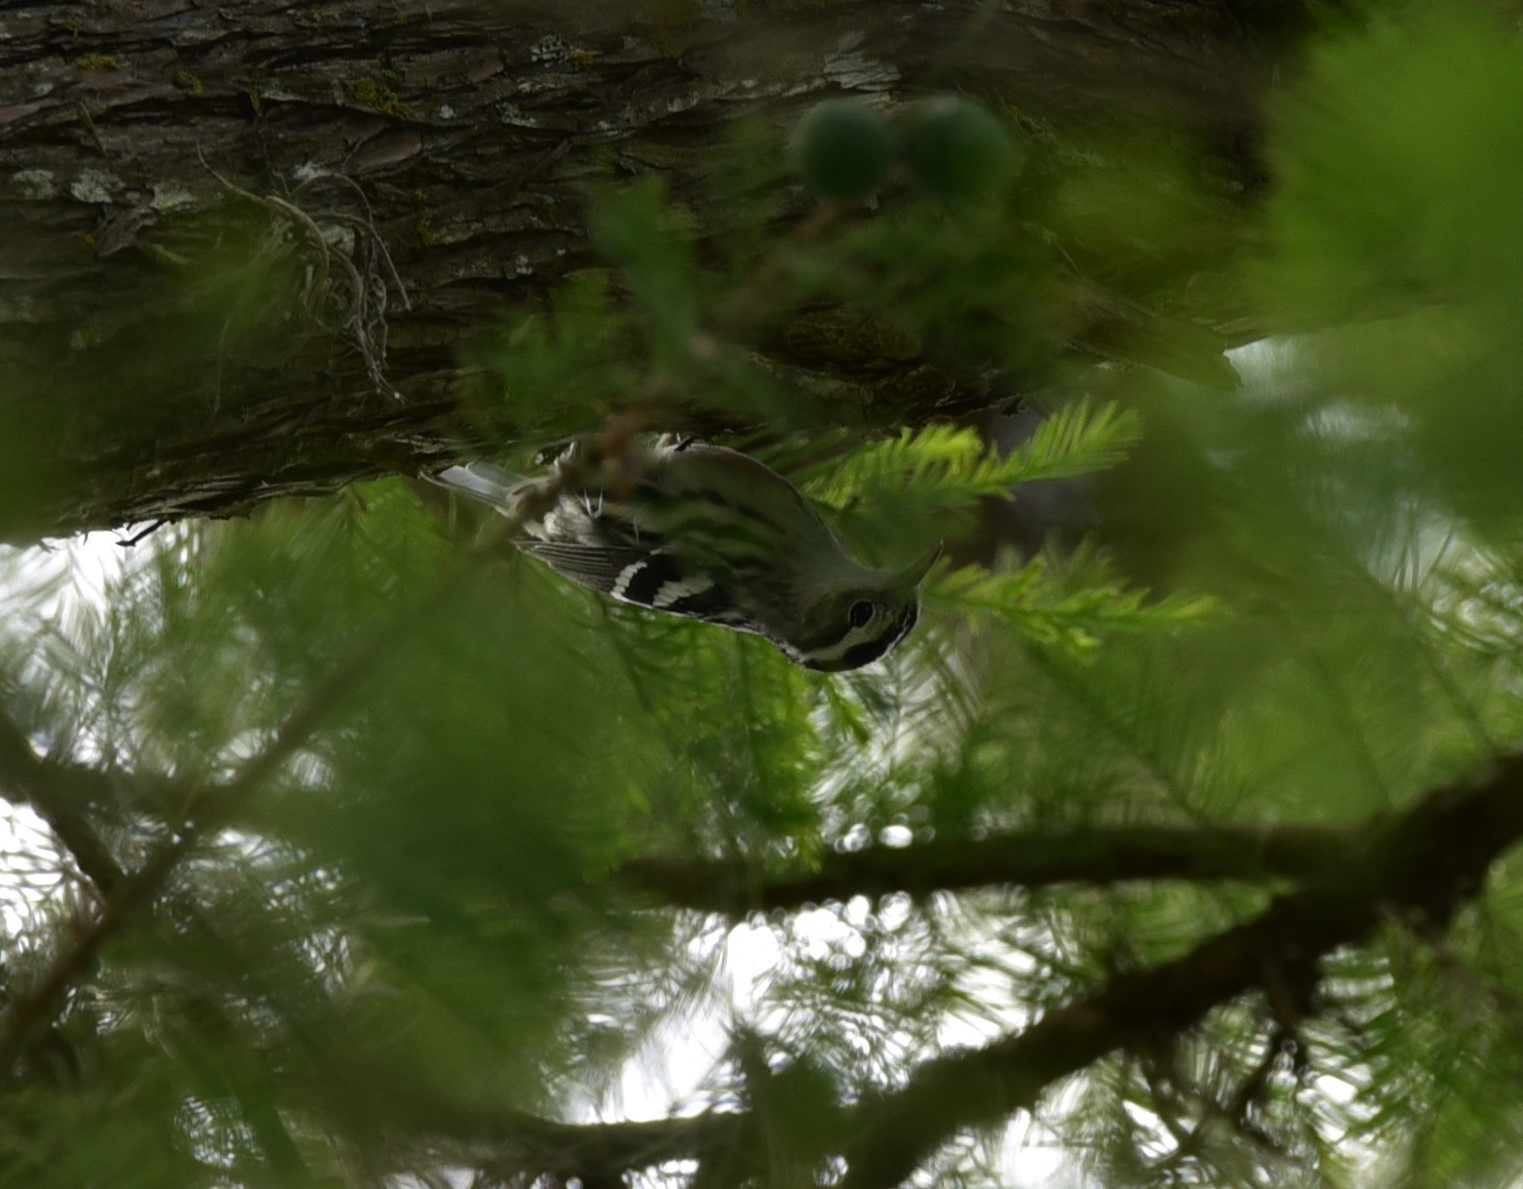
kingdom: Animalia
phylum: Chordata
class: Aves
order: Passeriformes
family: Parulidae
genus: Mniotilta
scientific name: Mniotilta varia
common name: Black-and-white warbler
